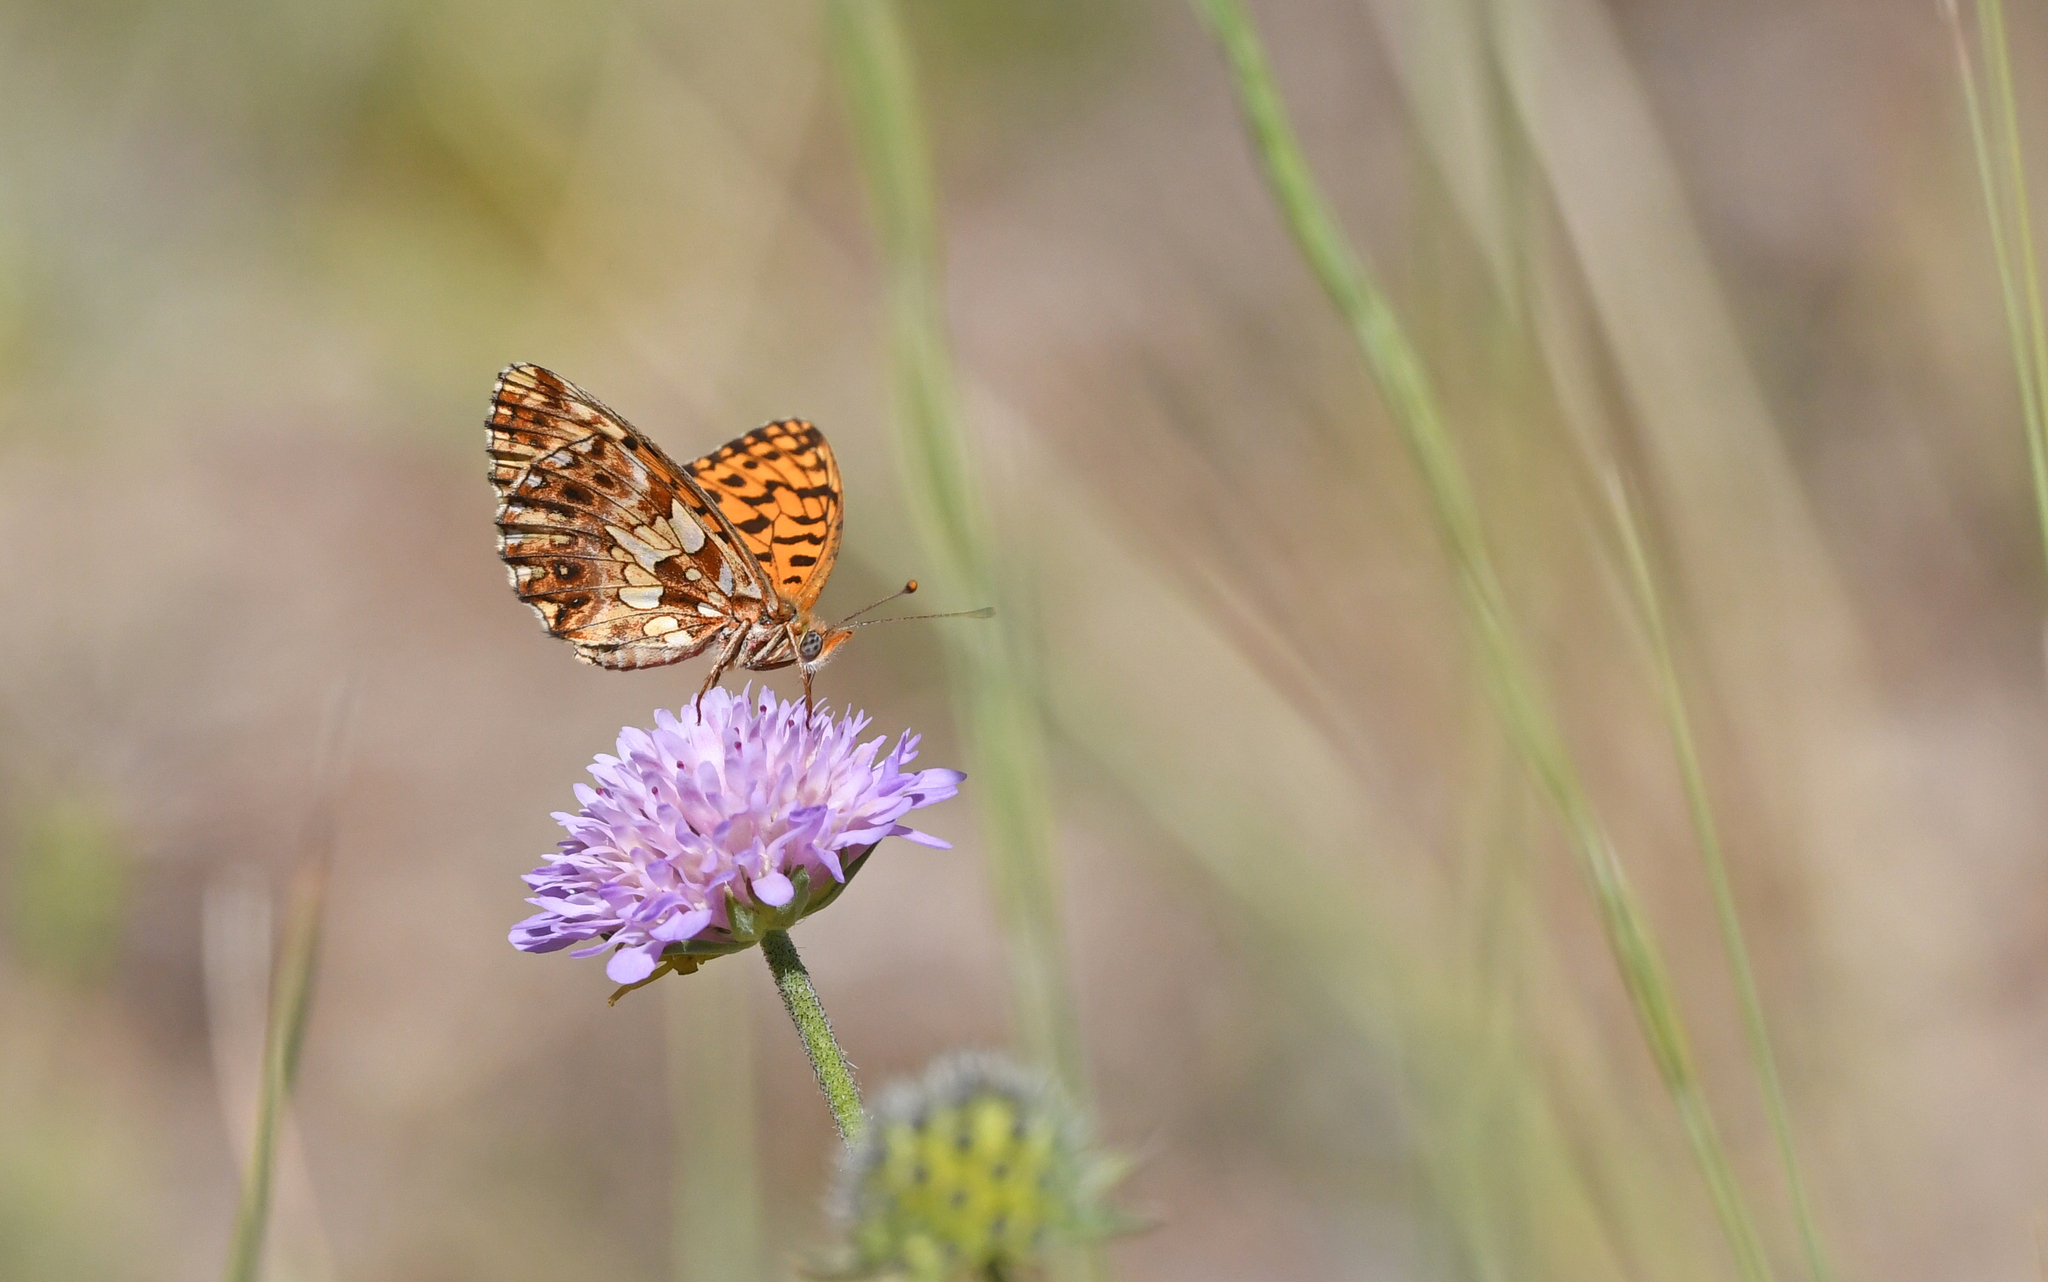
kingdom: Animalia
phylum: Arthropoda
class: Insecta
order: Lepidoptera
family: Nymphalidae
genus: Boloria
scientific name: Boloria dia
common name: Weaver's fritillary
